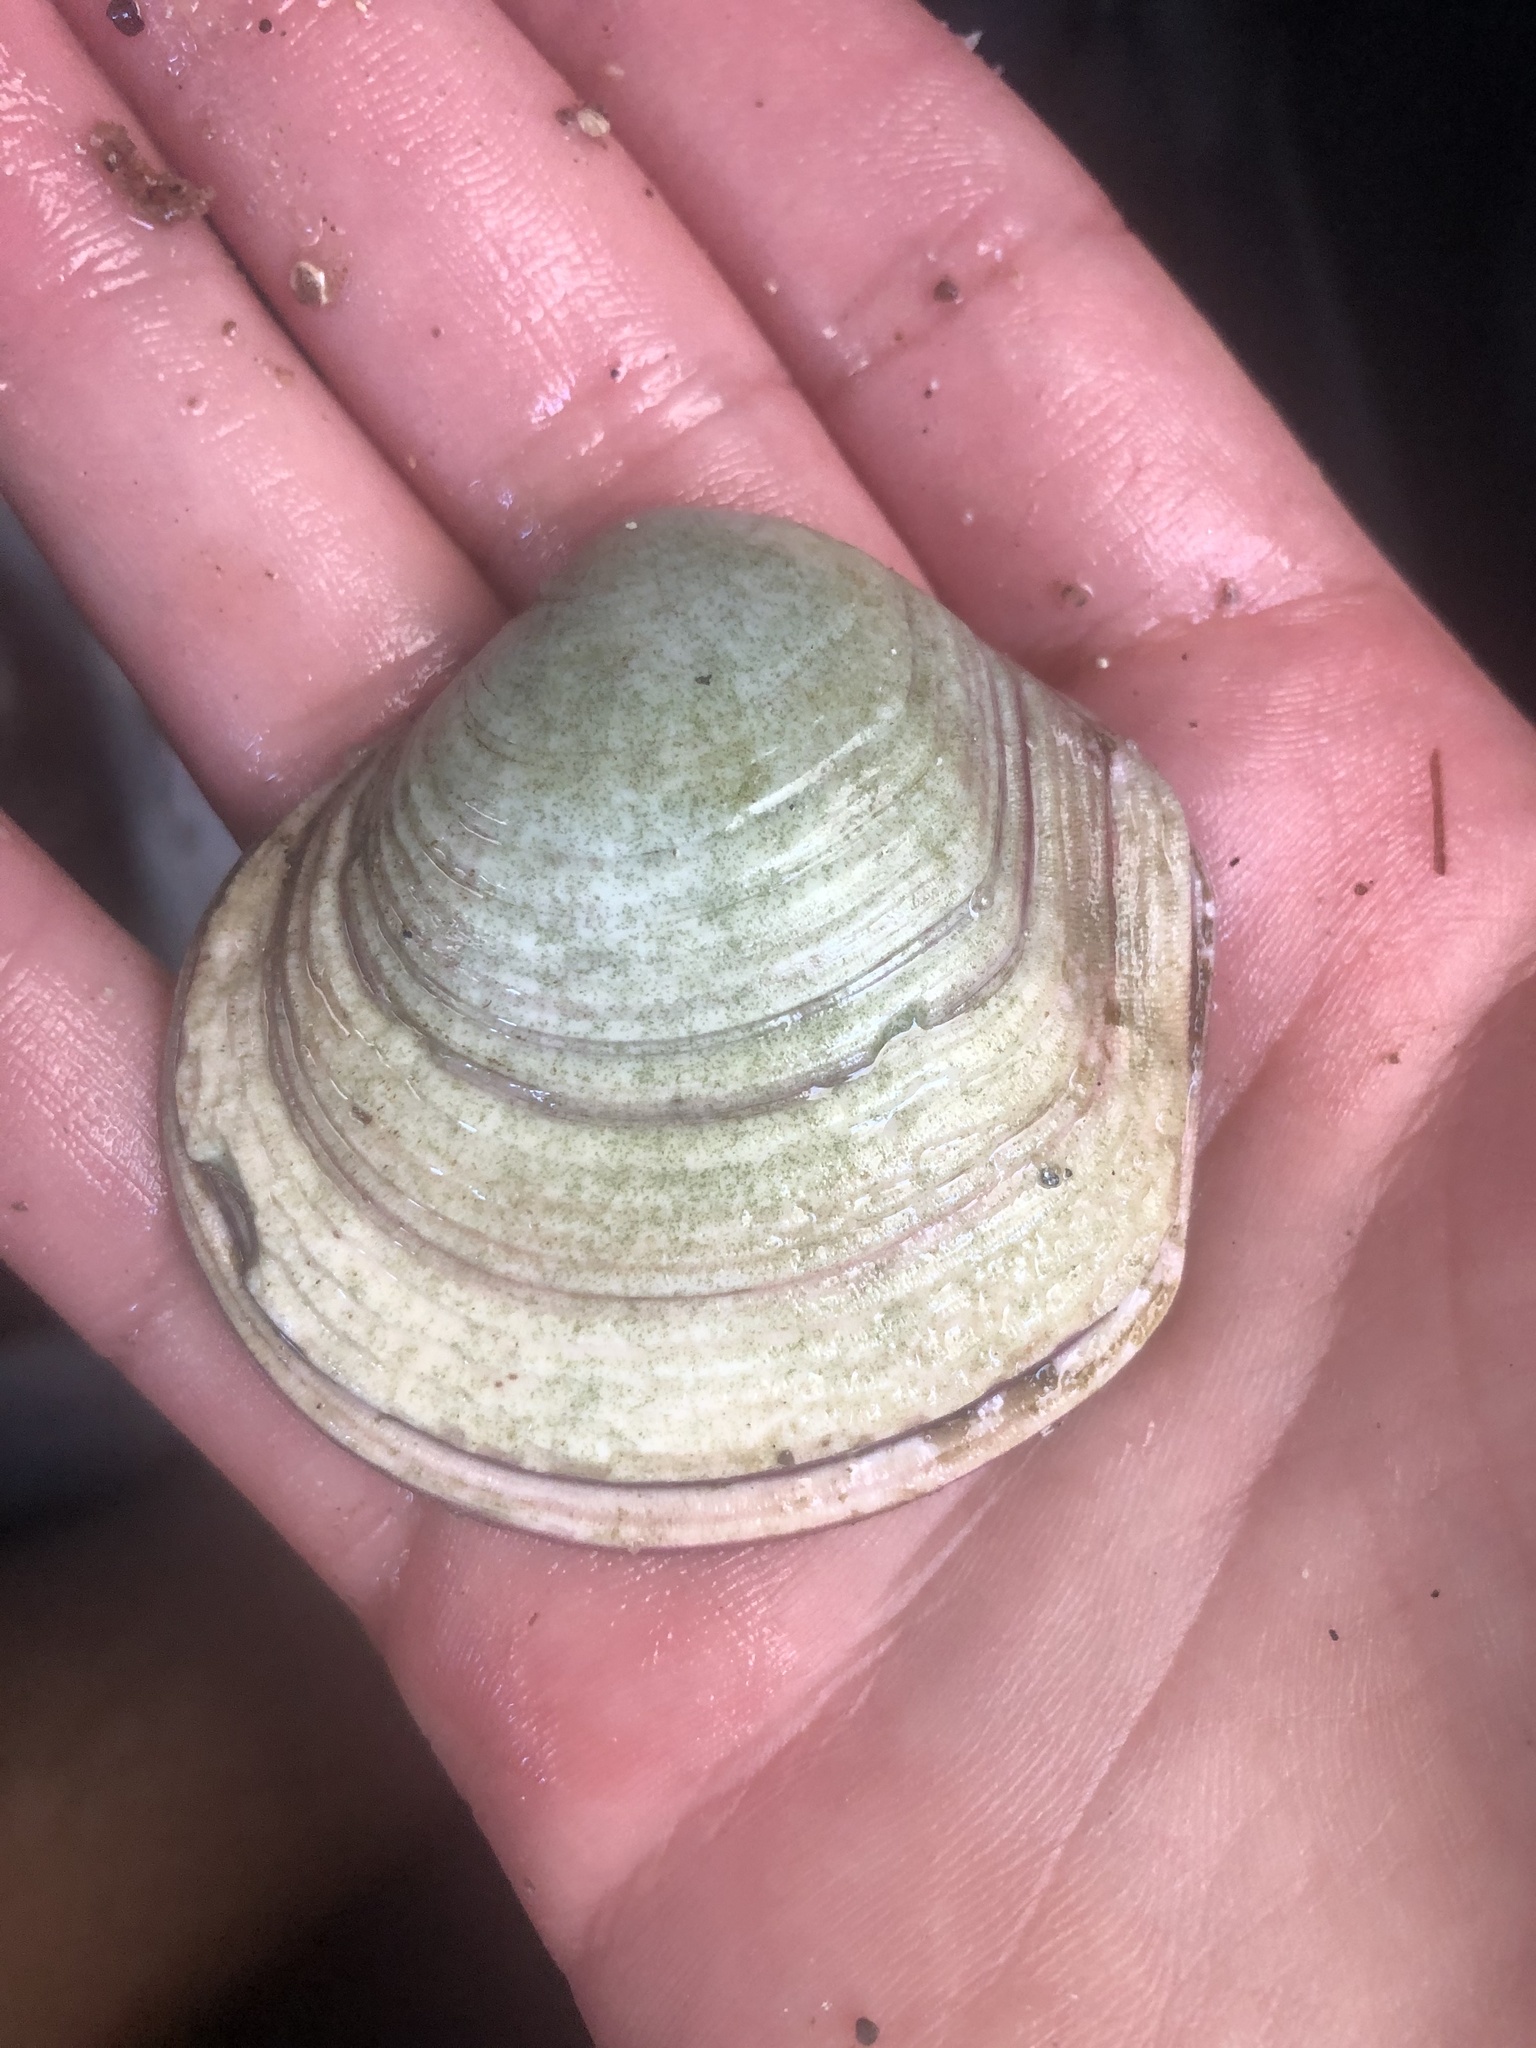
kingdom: Animalia
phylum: Mollusca
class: Bivalvia
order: Cardiida
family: Semelidae
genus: Semele
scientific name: Semele decisa
